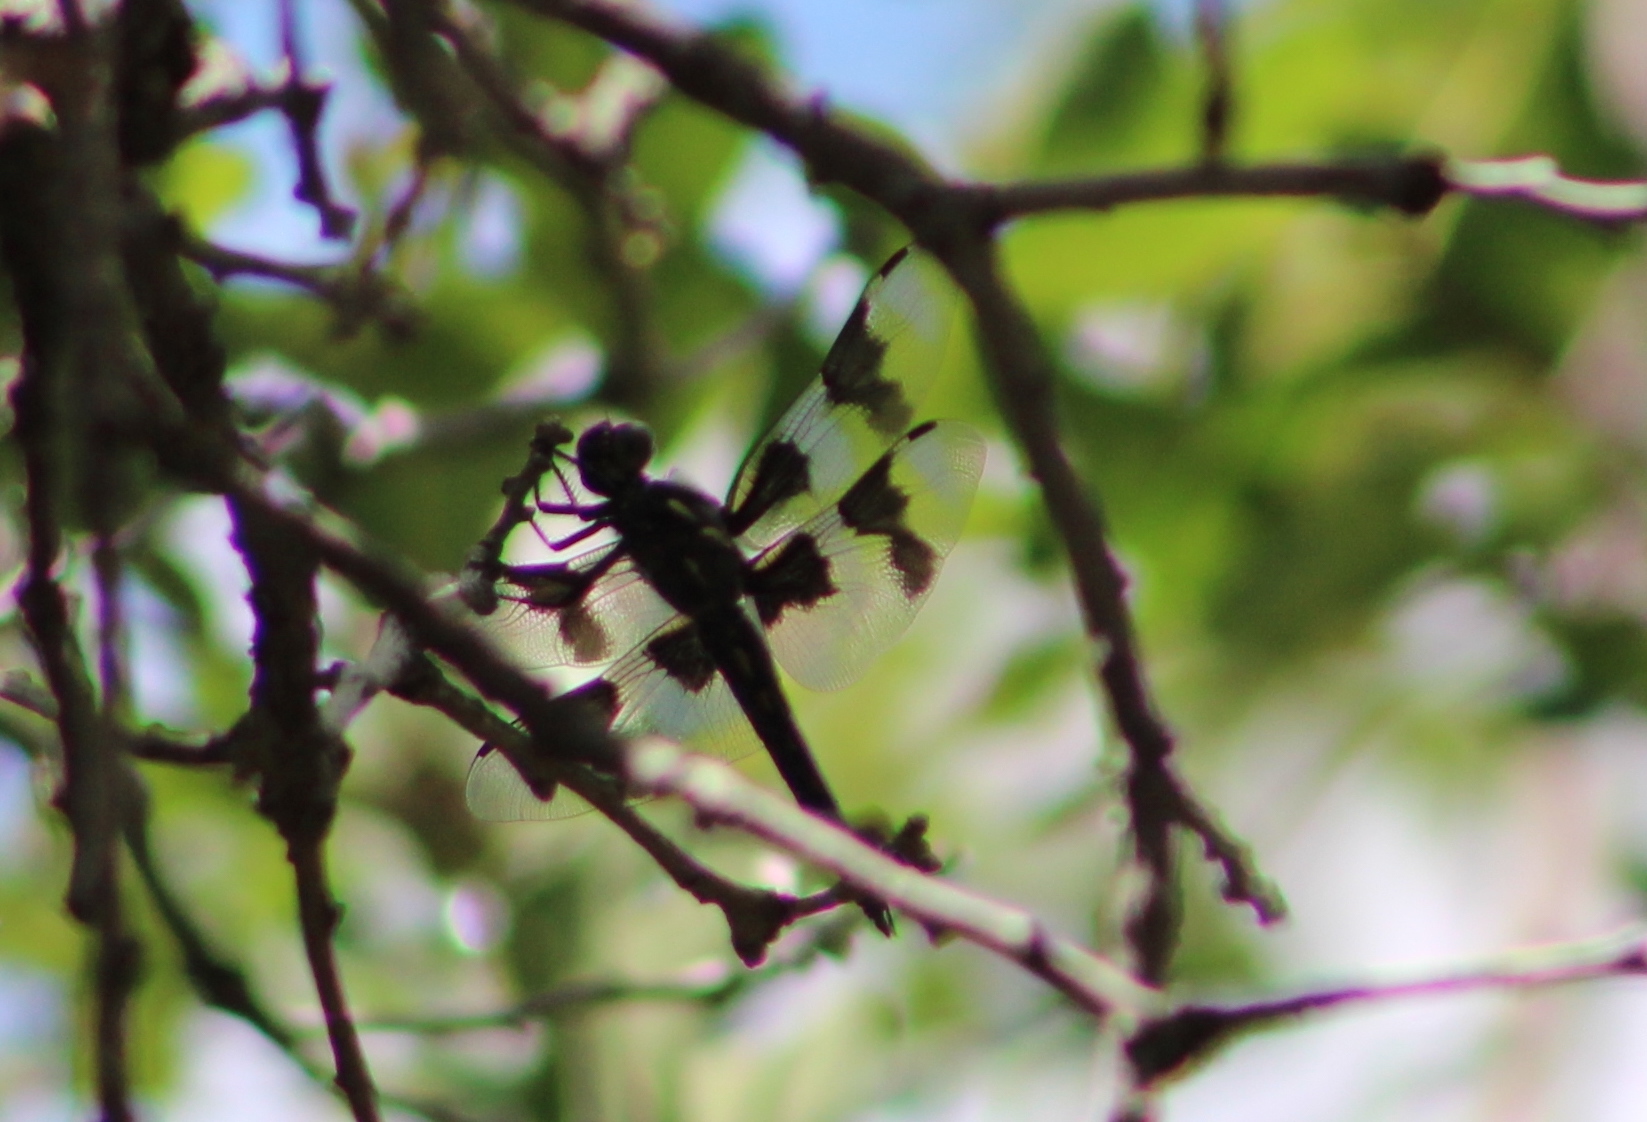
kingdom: Animalia
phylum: Arthropoda
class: Insecta
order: Odonata
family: Libellulidae
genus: Libellula
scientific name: Libellula forensis
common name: Eight-spotted skimmer
